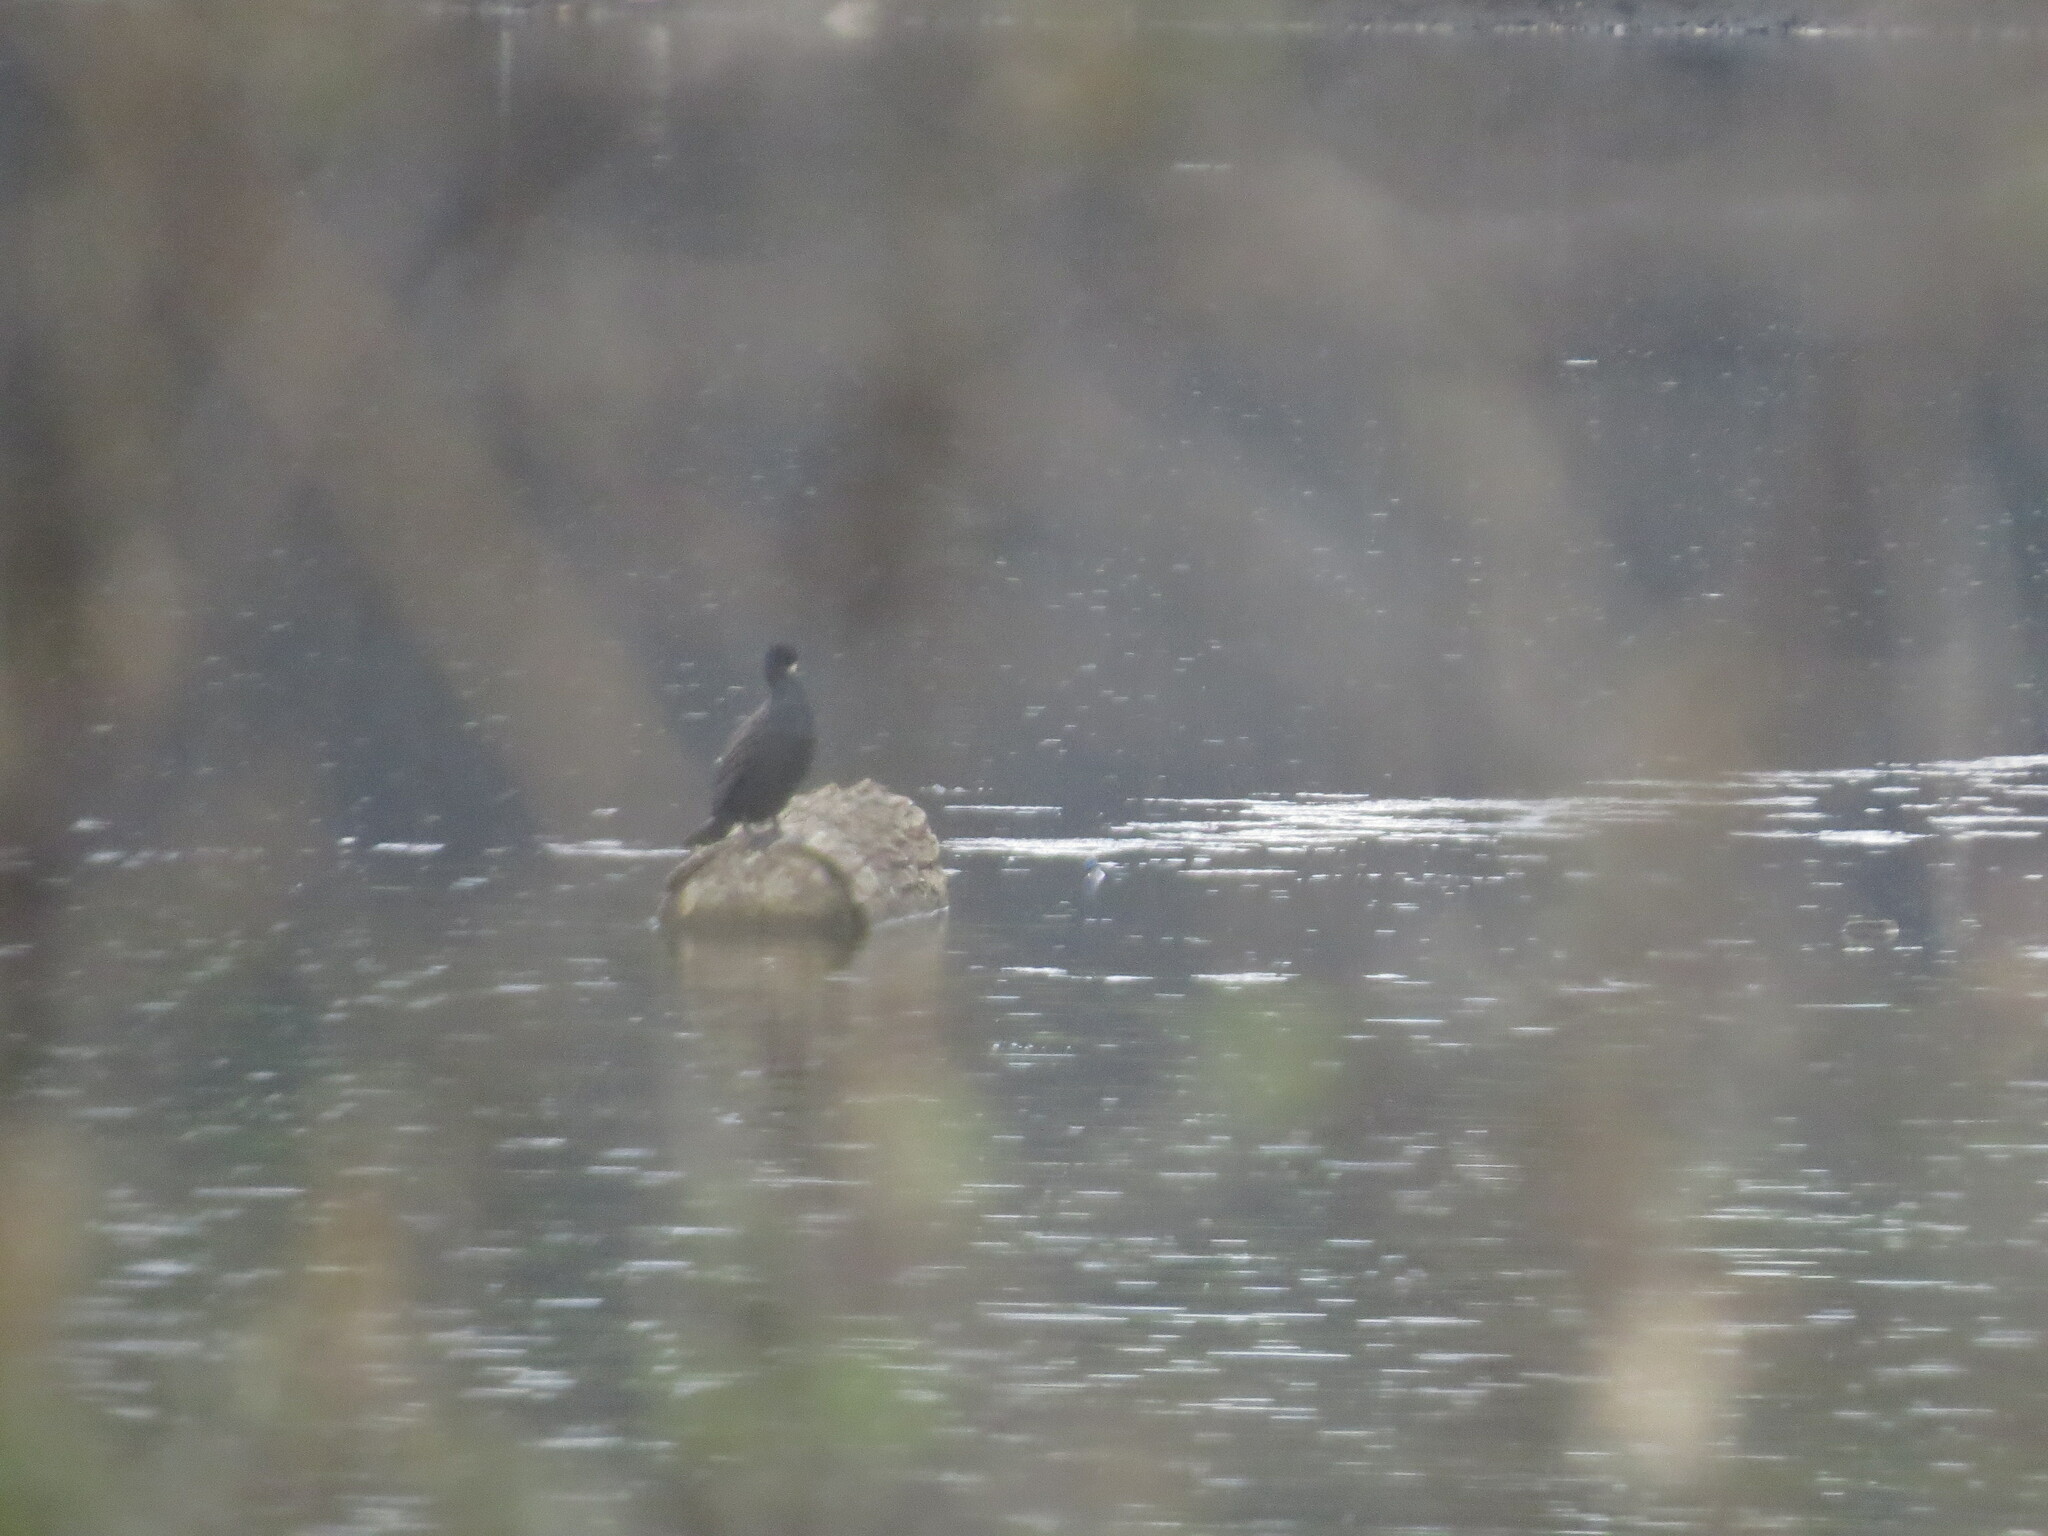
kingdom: Animalia
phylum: Chordata
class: Aves
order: Suliformes
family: Phalacrocoracidae
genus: Phalacrocorax
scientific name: Phalacrocorax carbo
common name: Great cormorant
